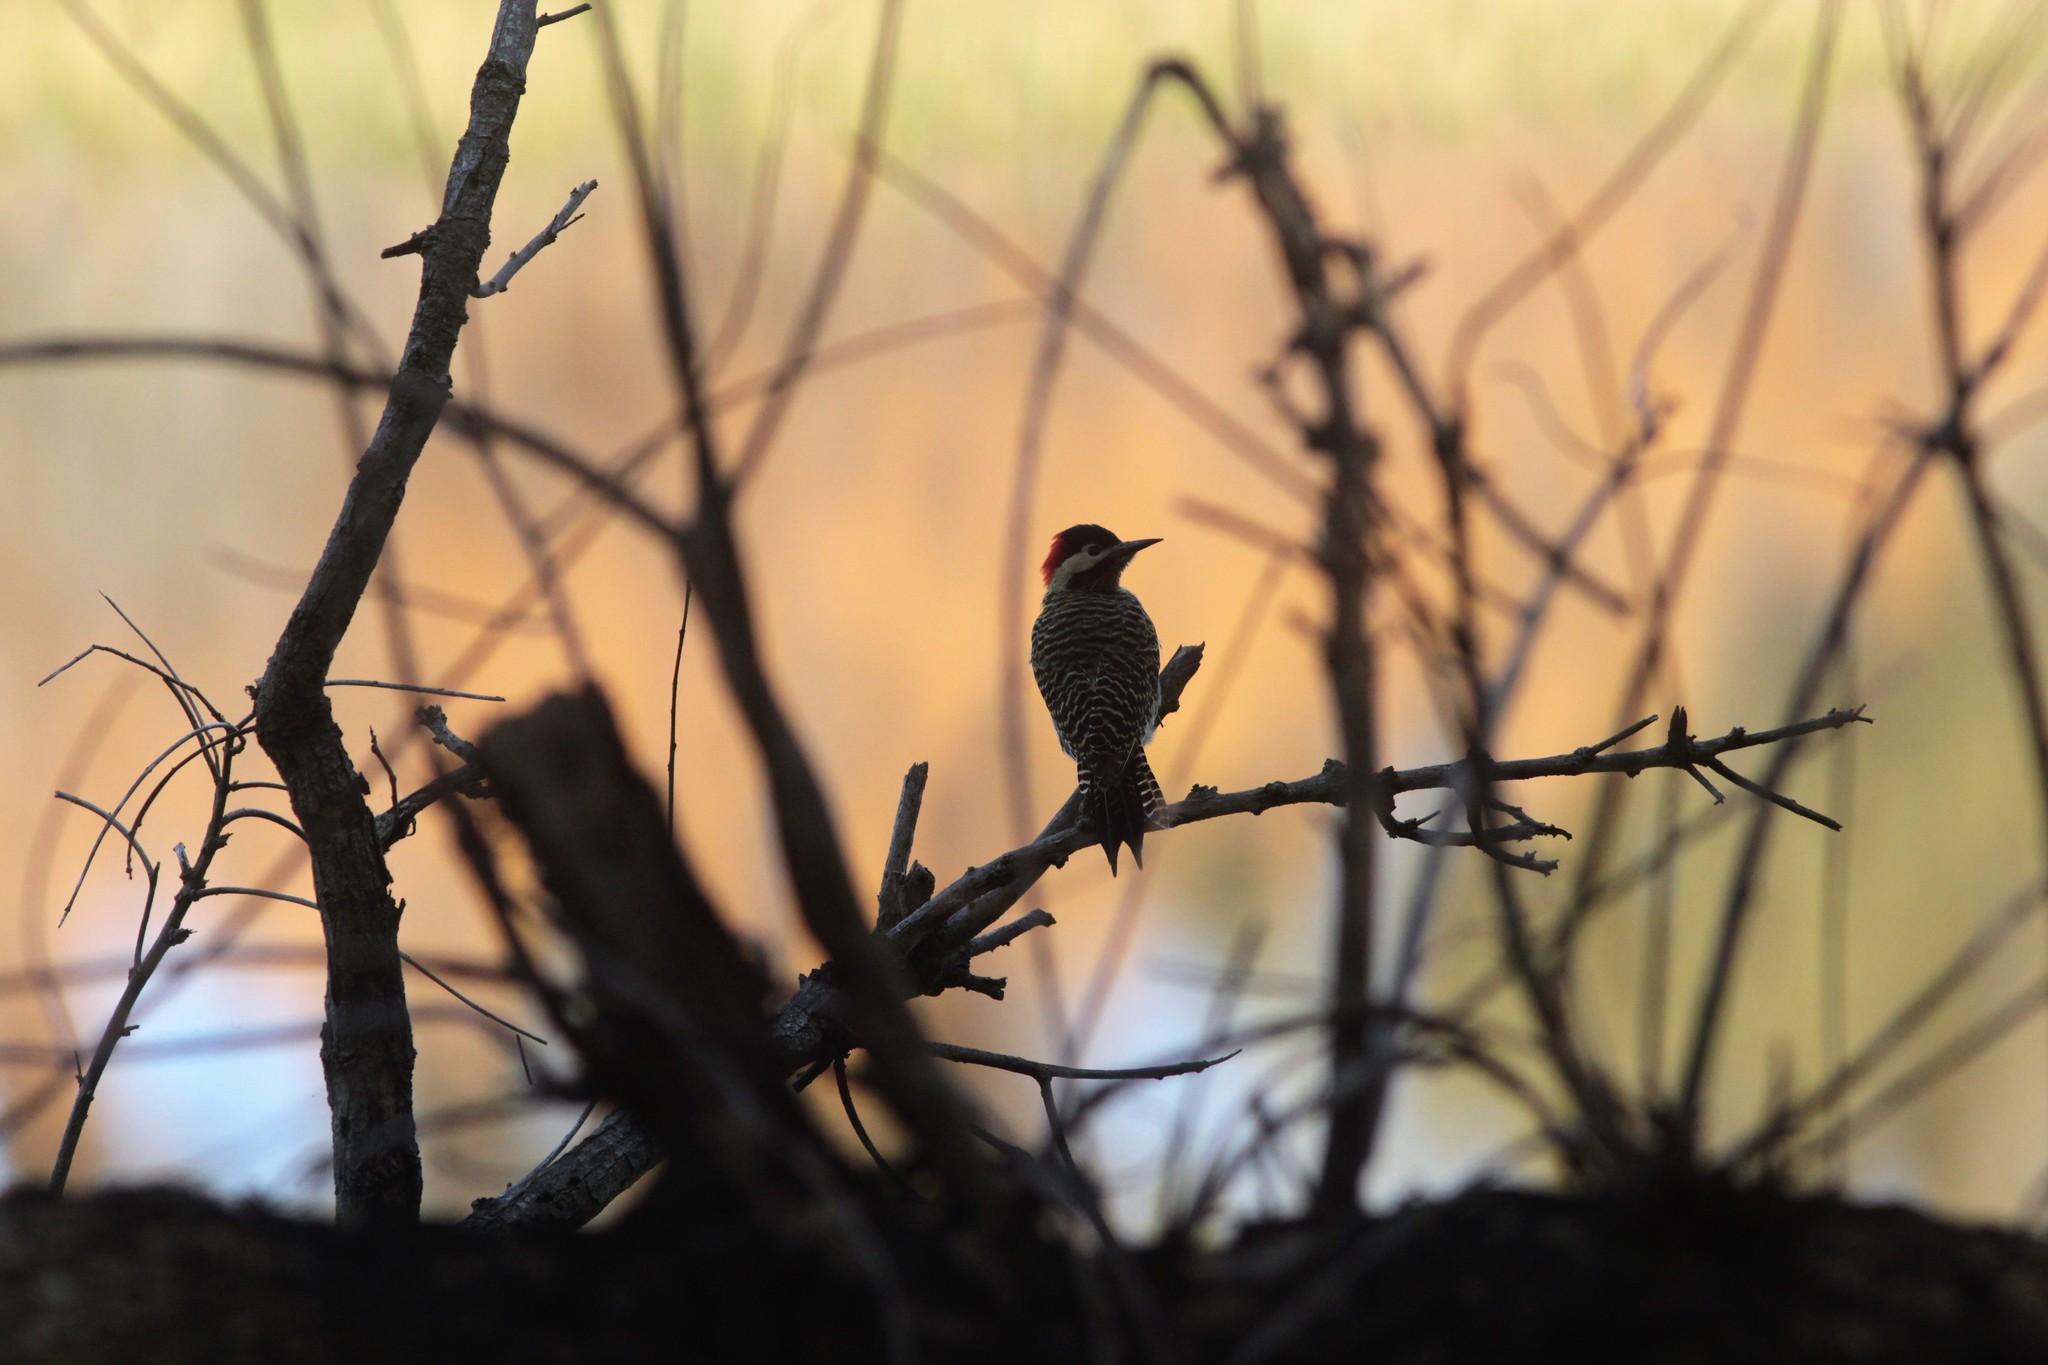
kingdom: Animalia
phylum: Chordata
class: Aves
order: Piciformes
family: Picidae
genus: Colaptes
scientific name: Colaptes melanochloros
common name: Green-barred woodpecker
